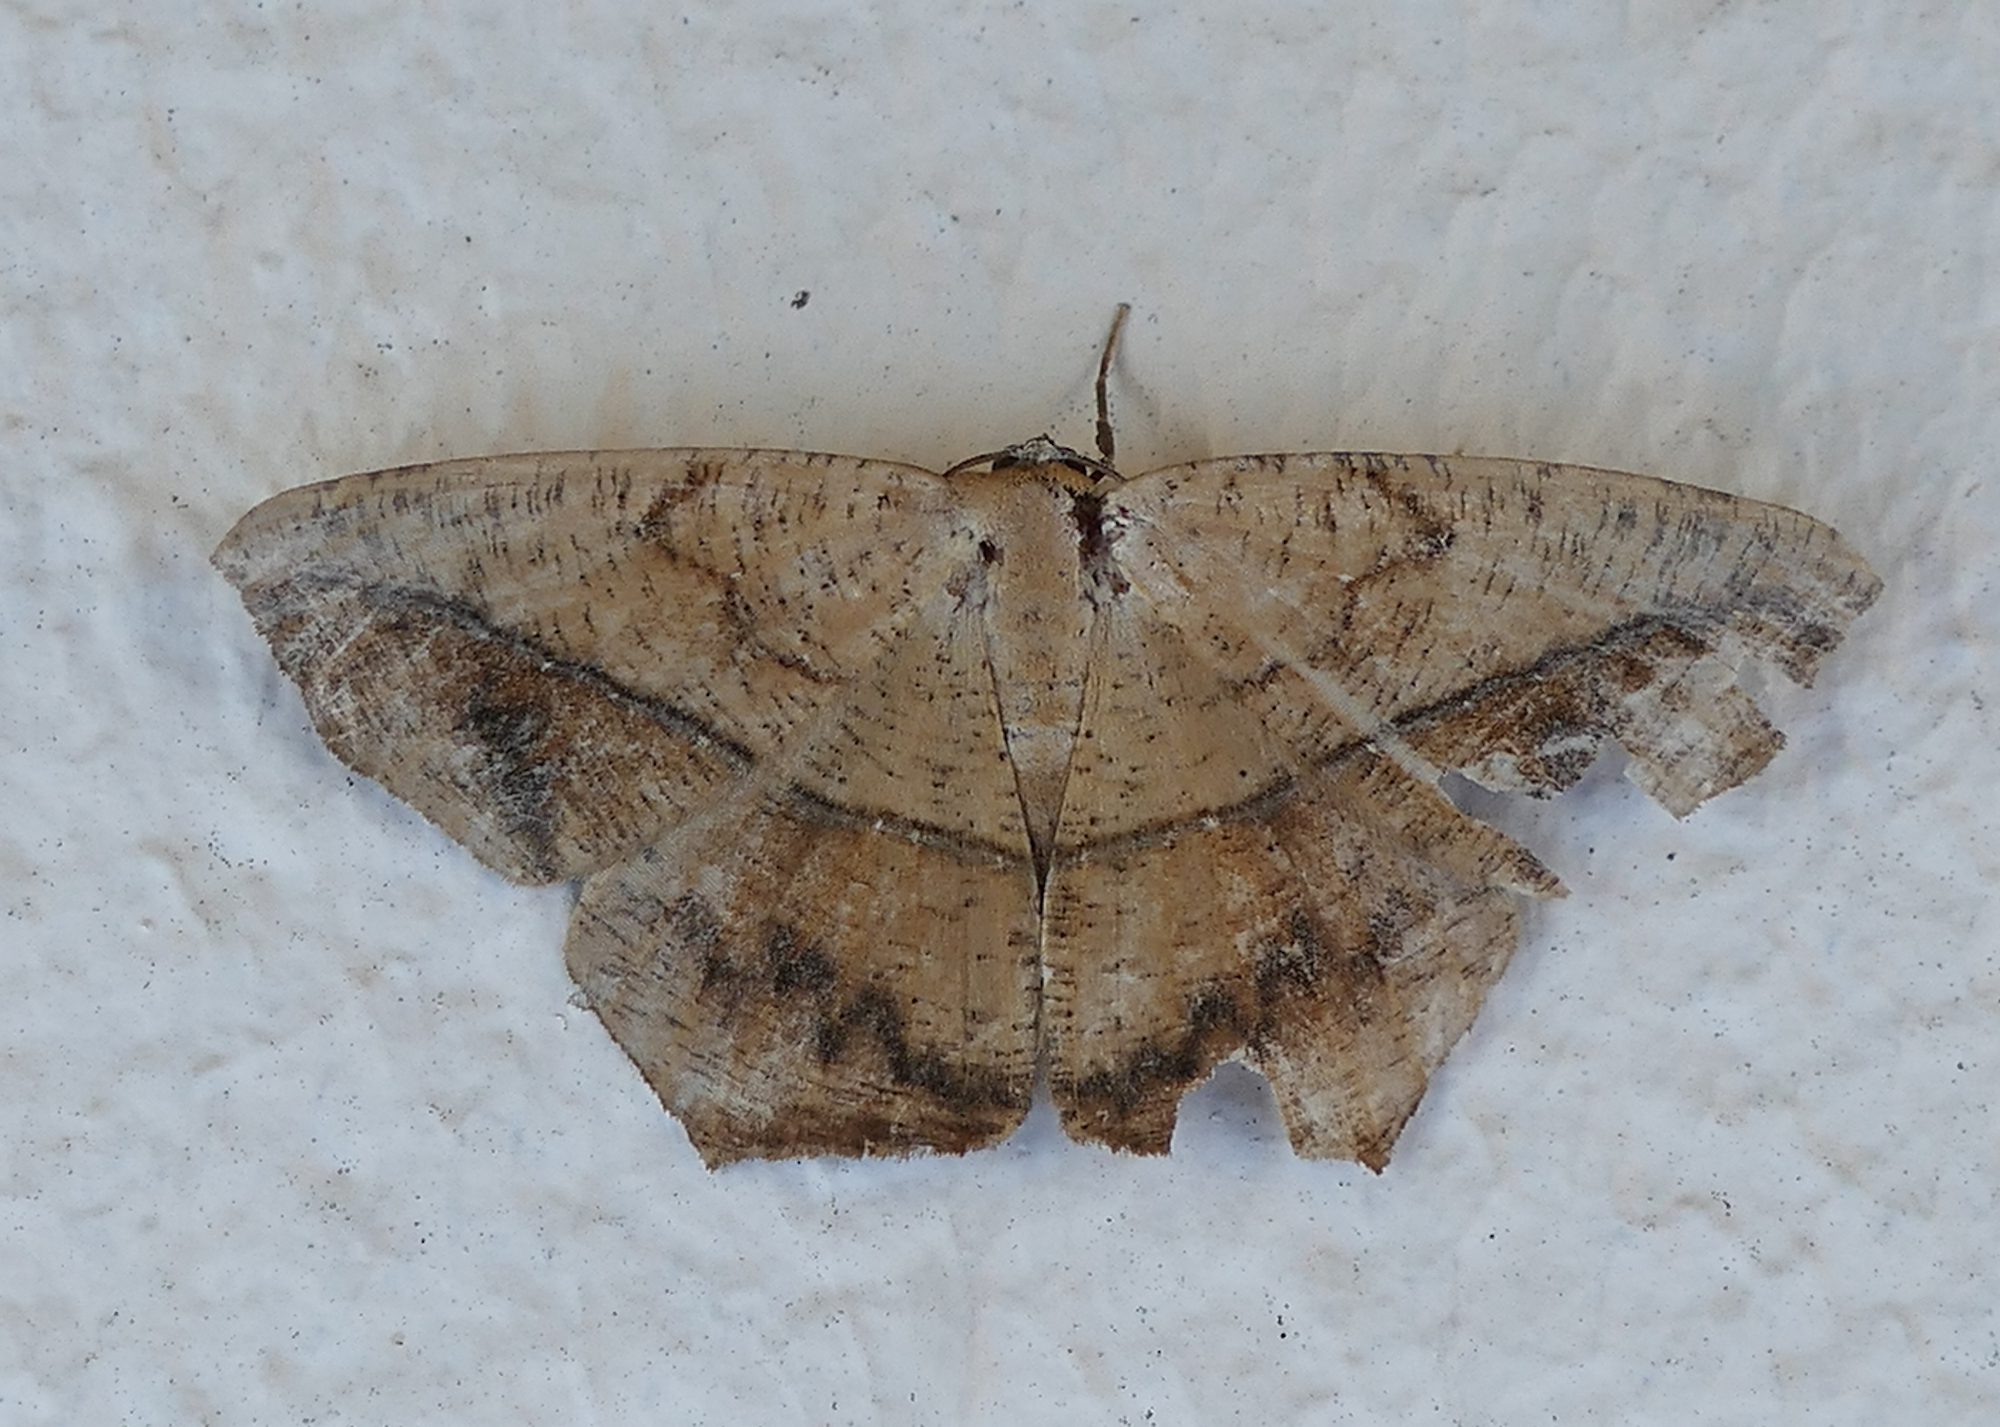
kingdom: Animalia
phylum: Arthropoda
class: Insecta
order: Lepidoptera
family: Geometridae
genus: Prochoerodes
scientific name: Prochoerodes lineola
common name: Large maple spanworm
